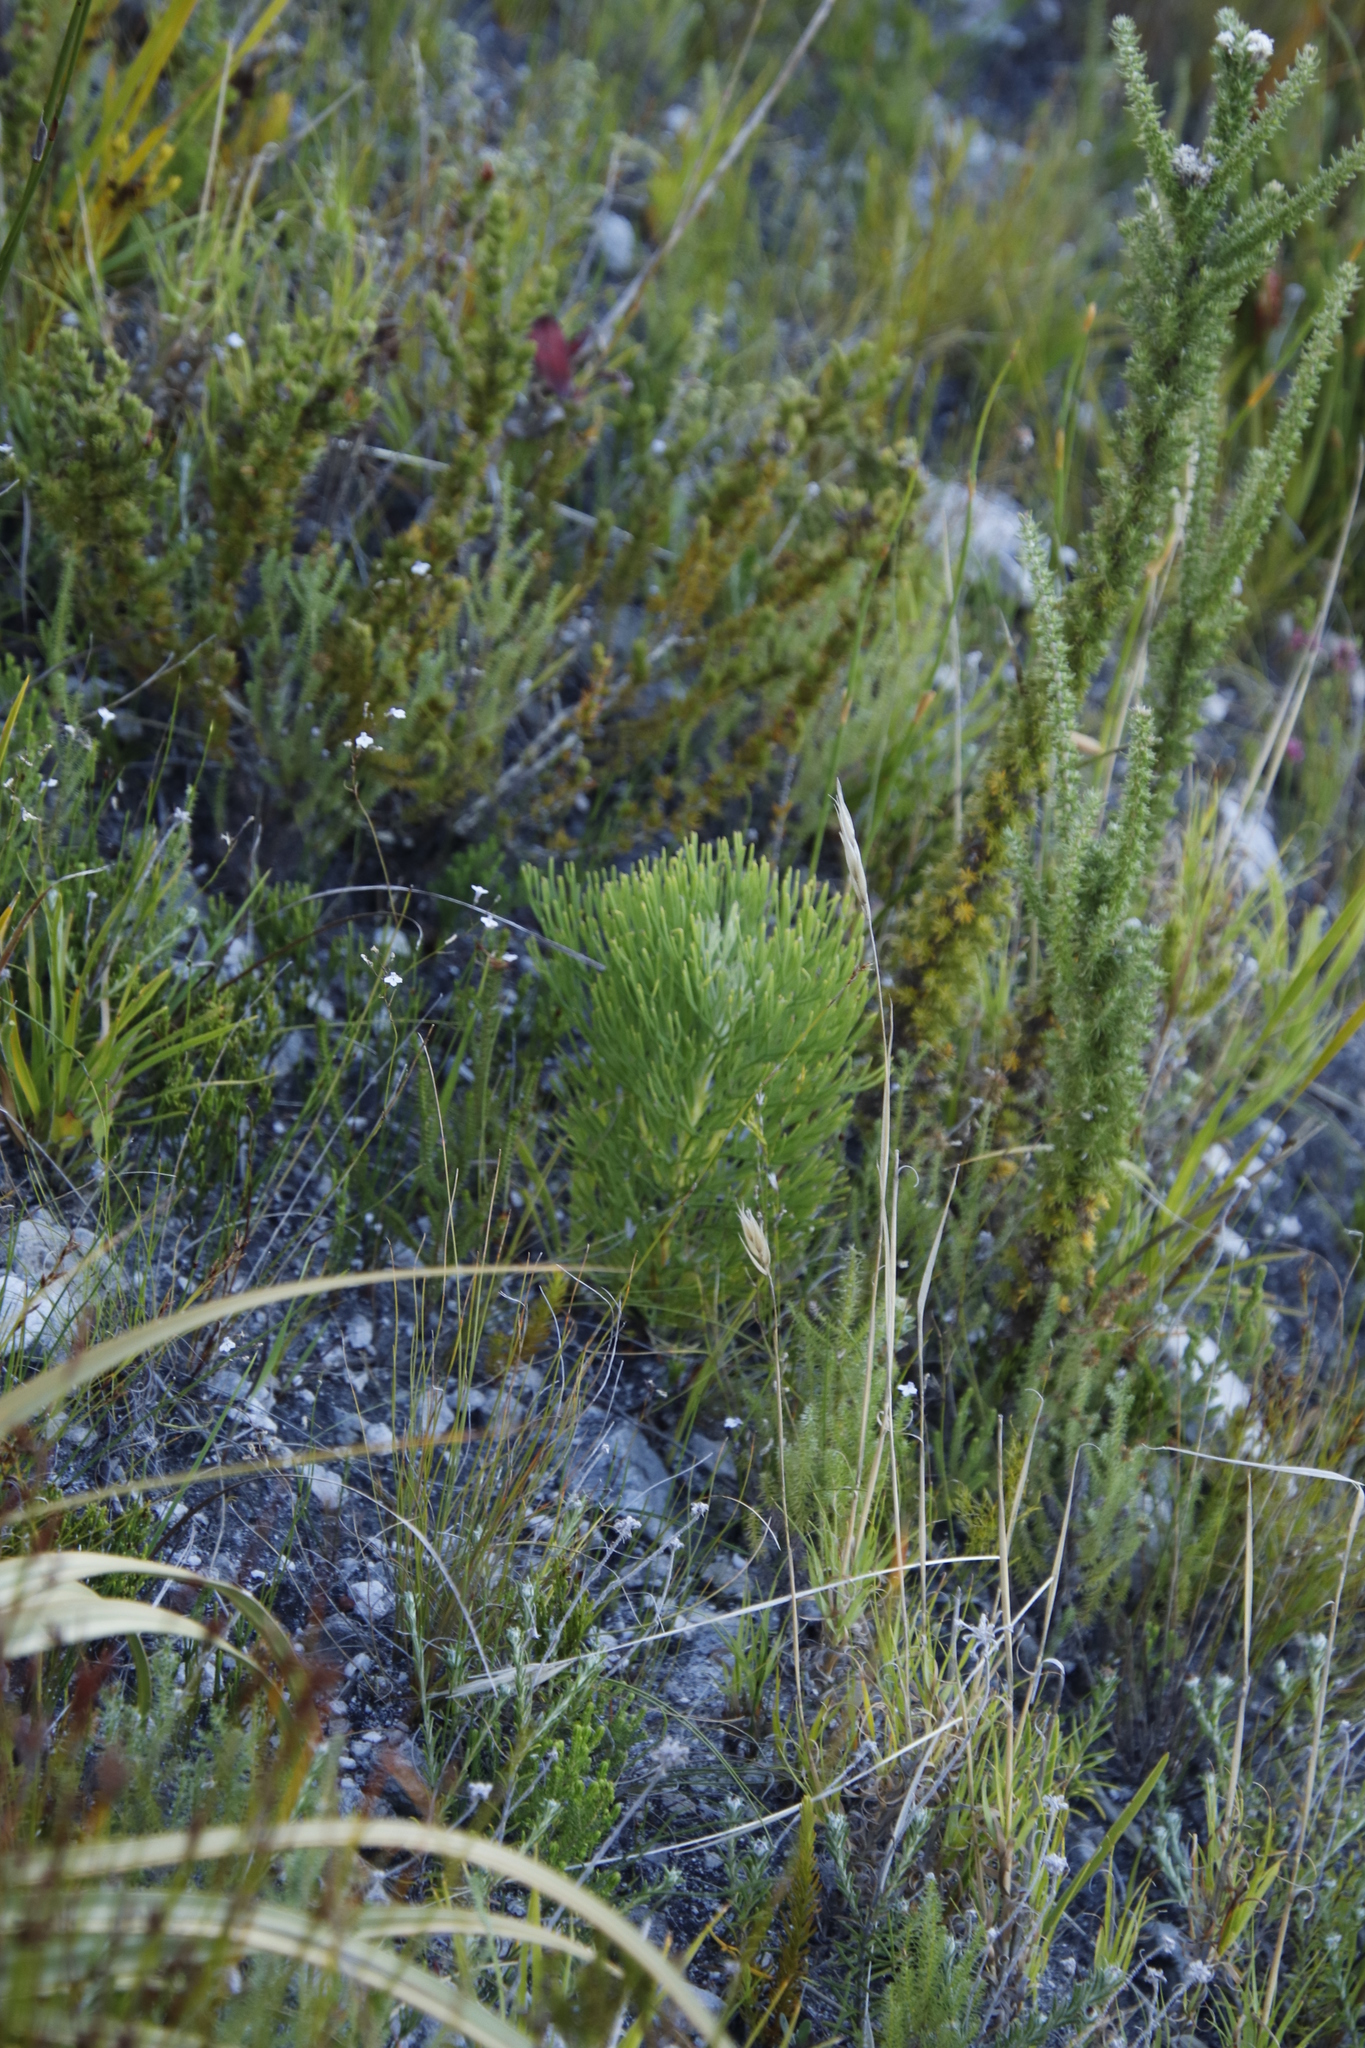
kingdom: Plantae
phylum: Tracheophyta
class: Magnoliopsida
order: Proteales
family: Proteaceae
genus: Paranomus
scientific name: Paranomus sceptrum-gustavianus
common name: King gustav's sceptre
